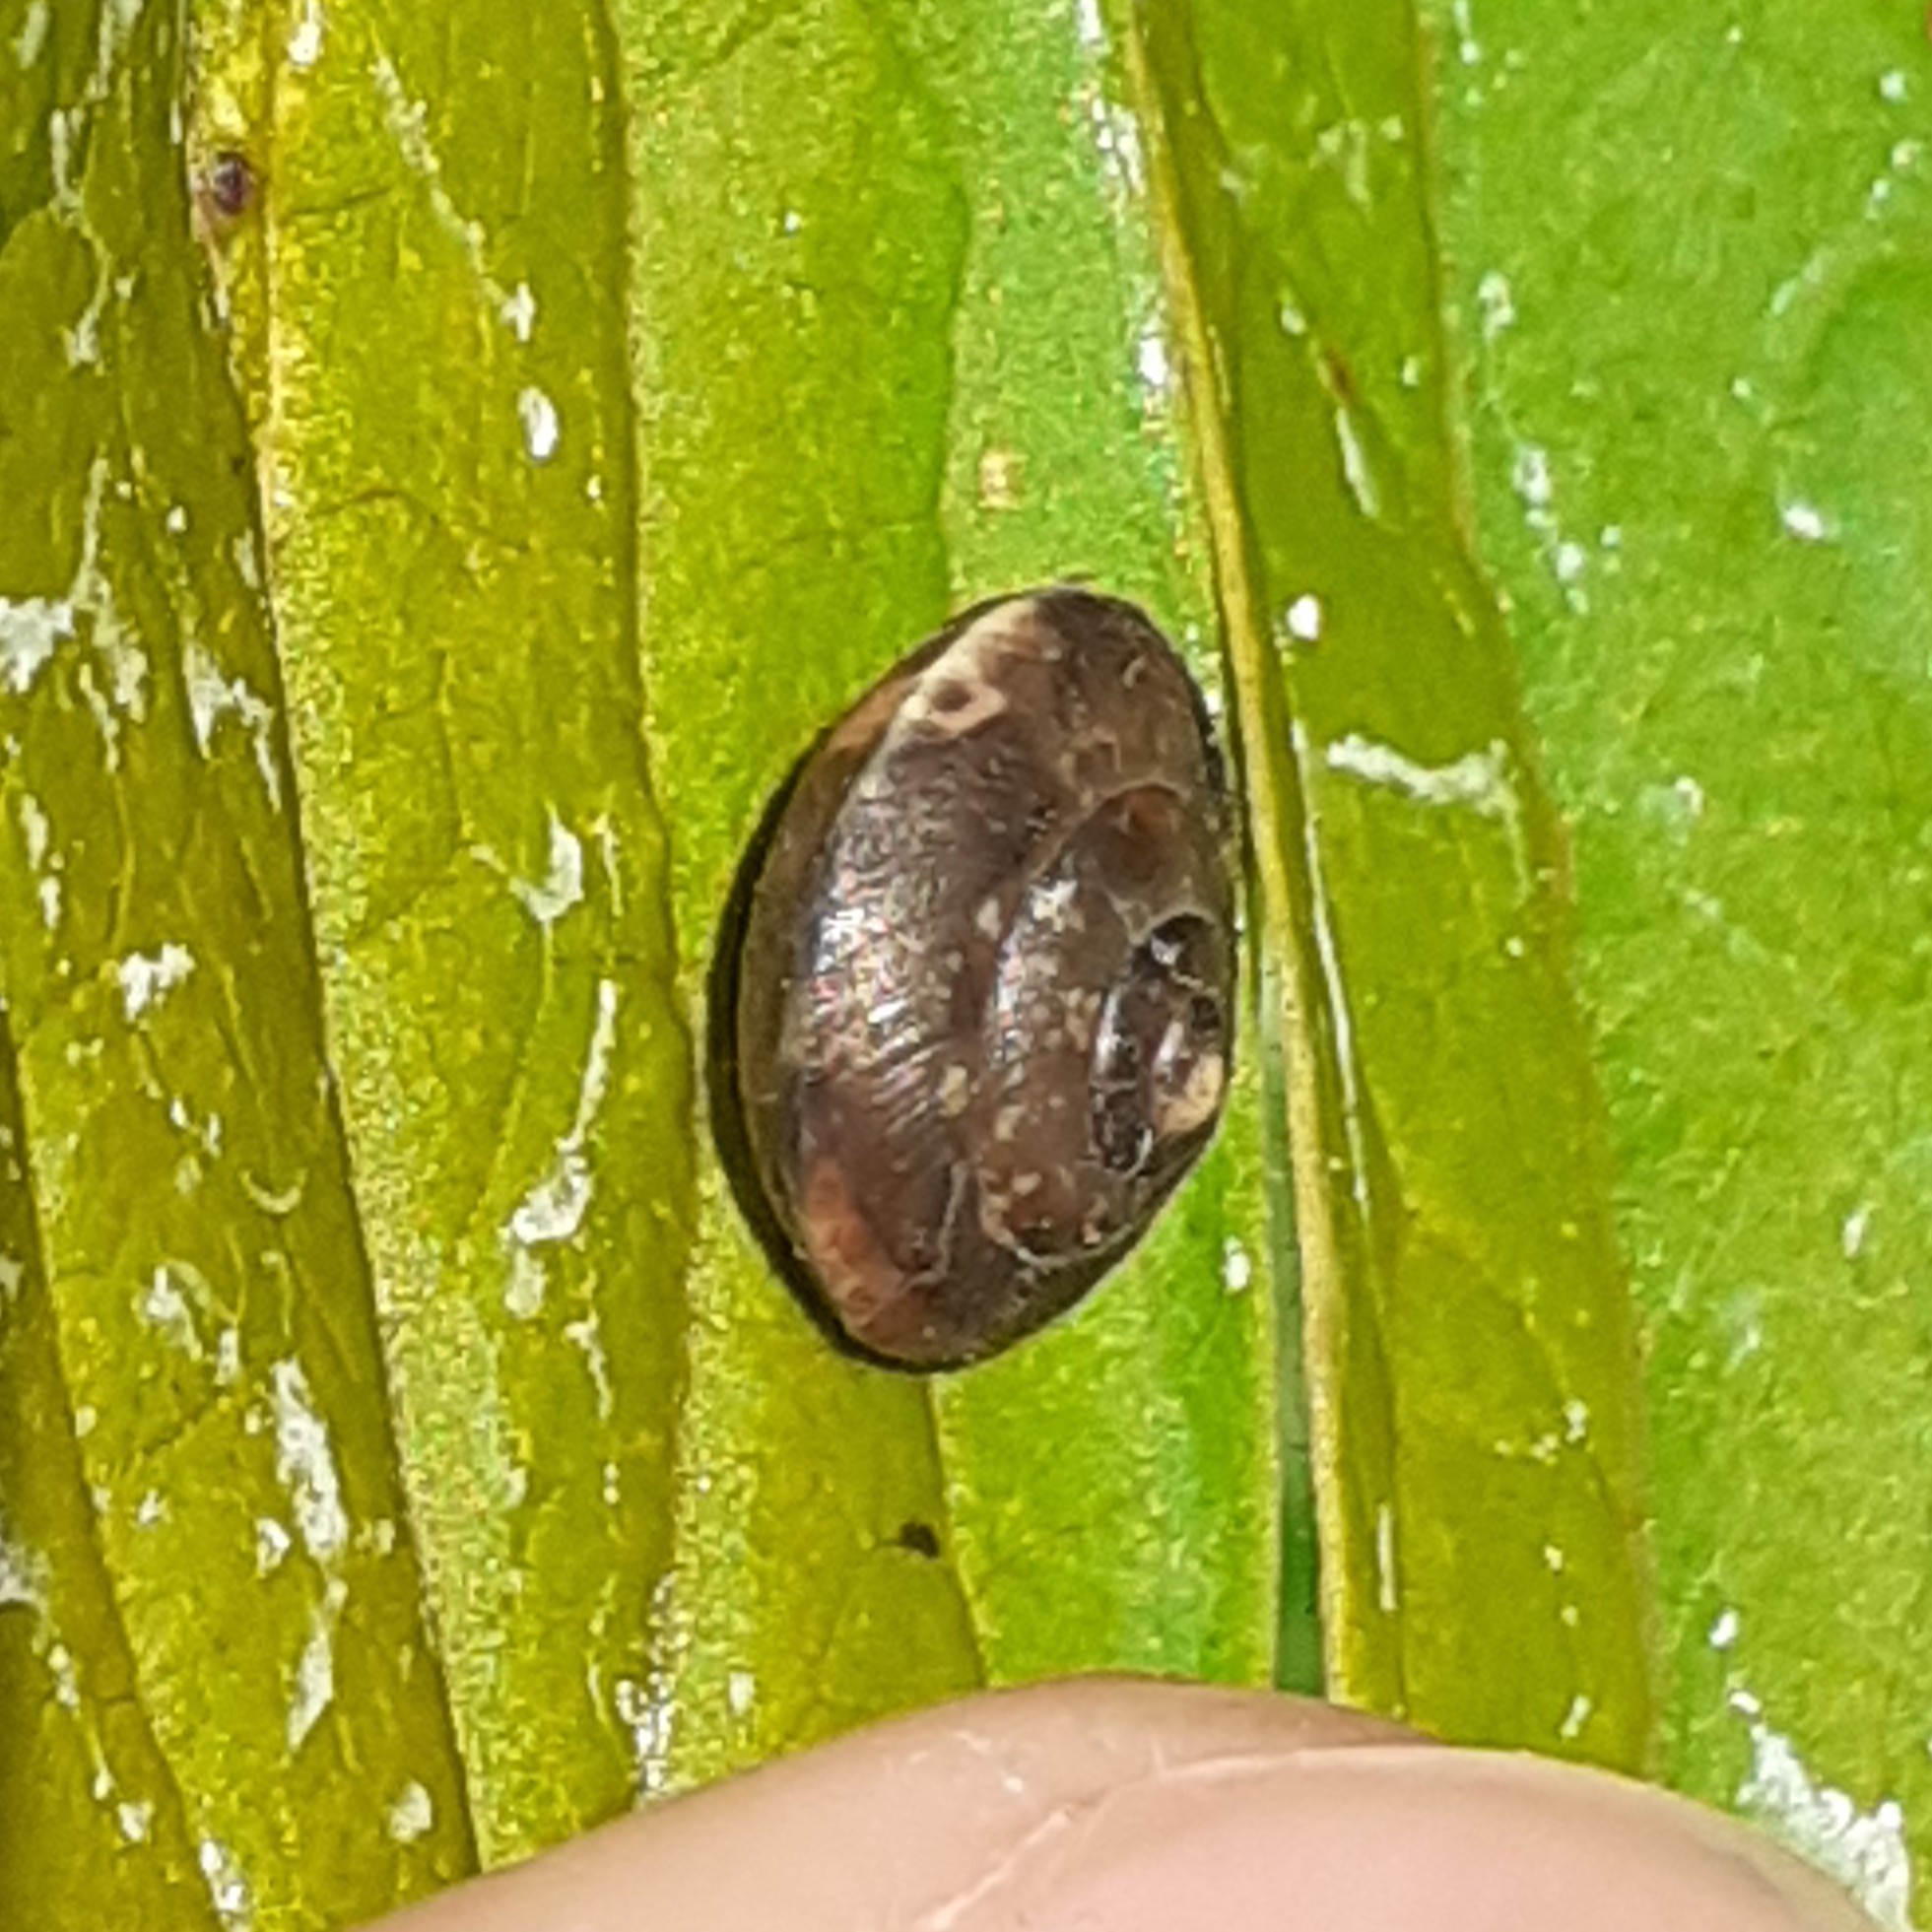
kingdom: Animalia
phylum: Mollusca
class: Gastropoda
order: Stylommatophora
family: Hygromiidae
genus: Hygromia
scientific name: Hygromia cinctella
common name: Girdled snail
